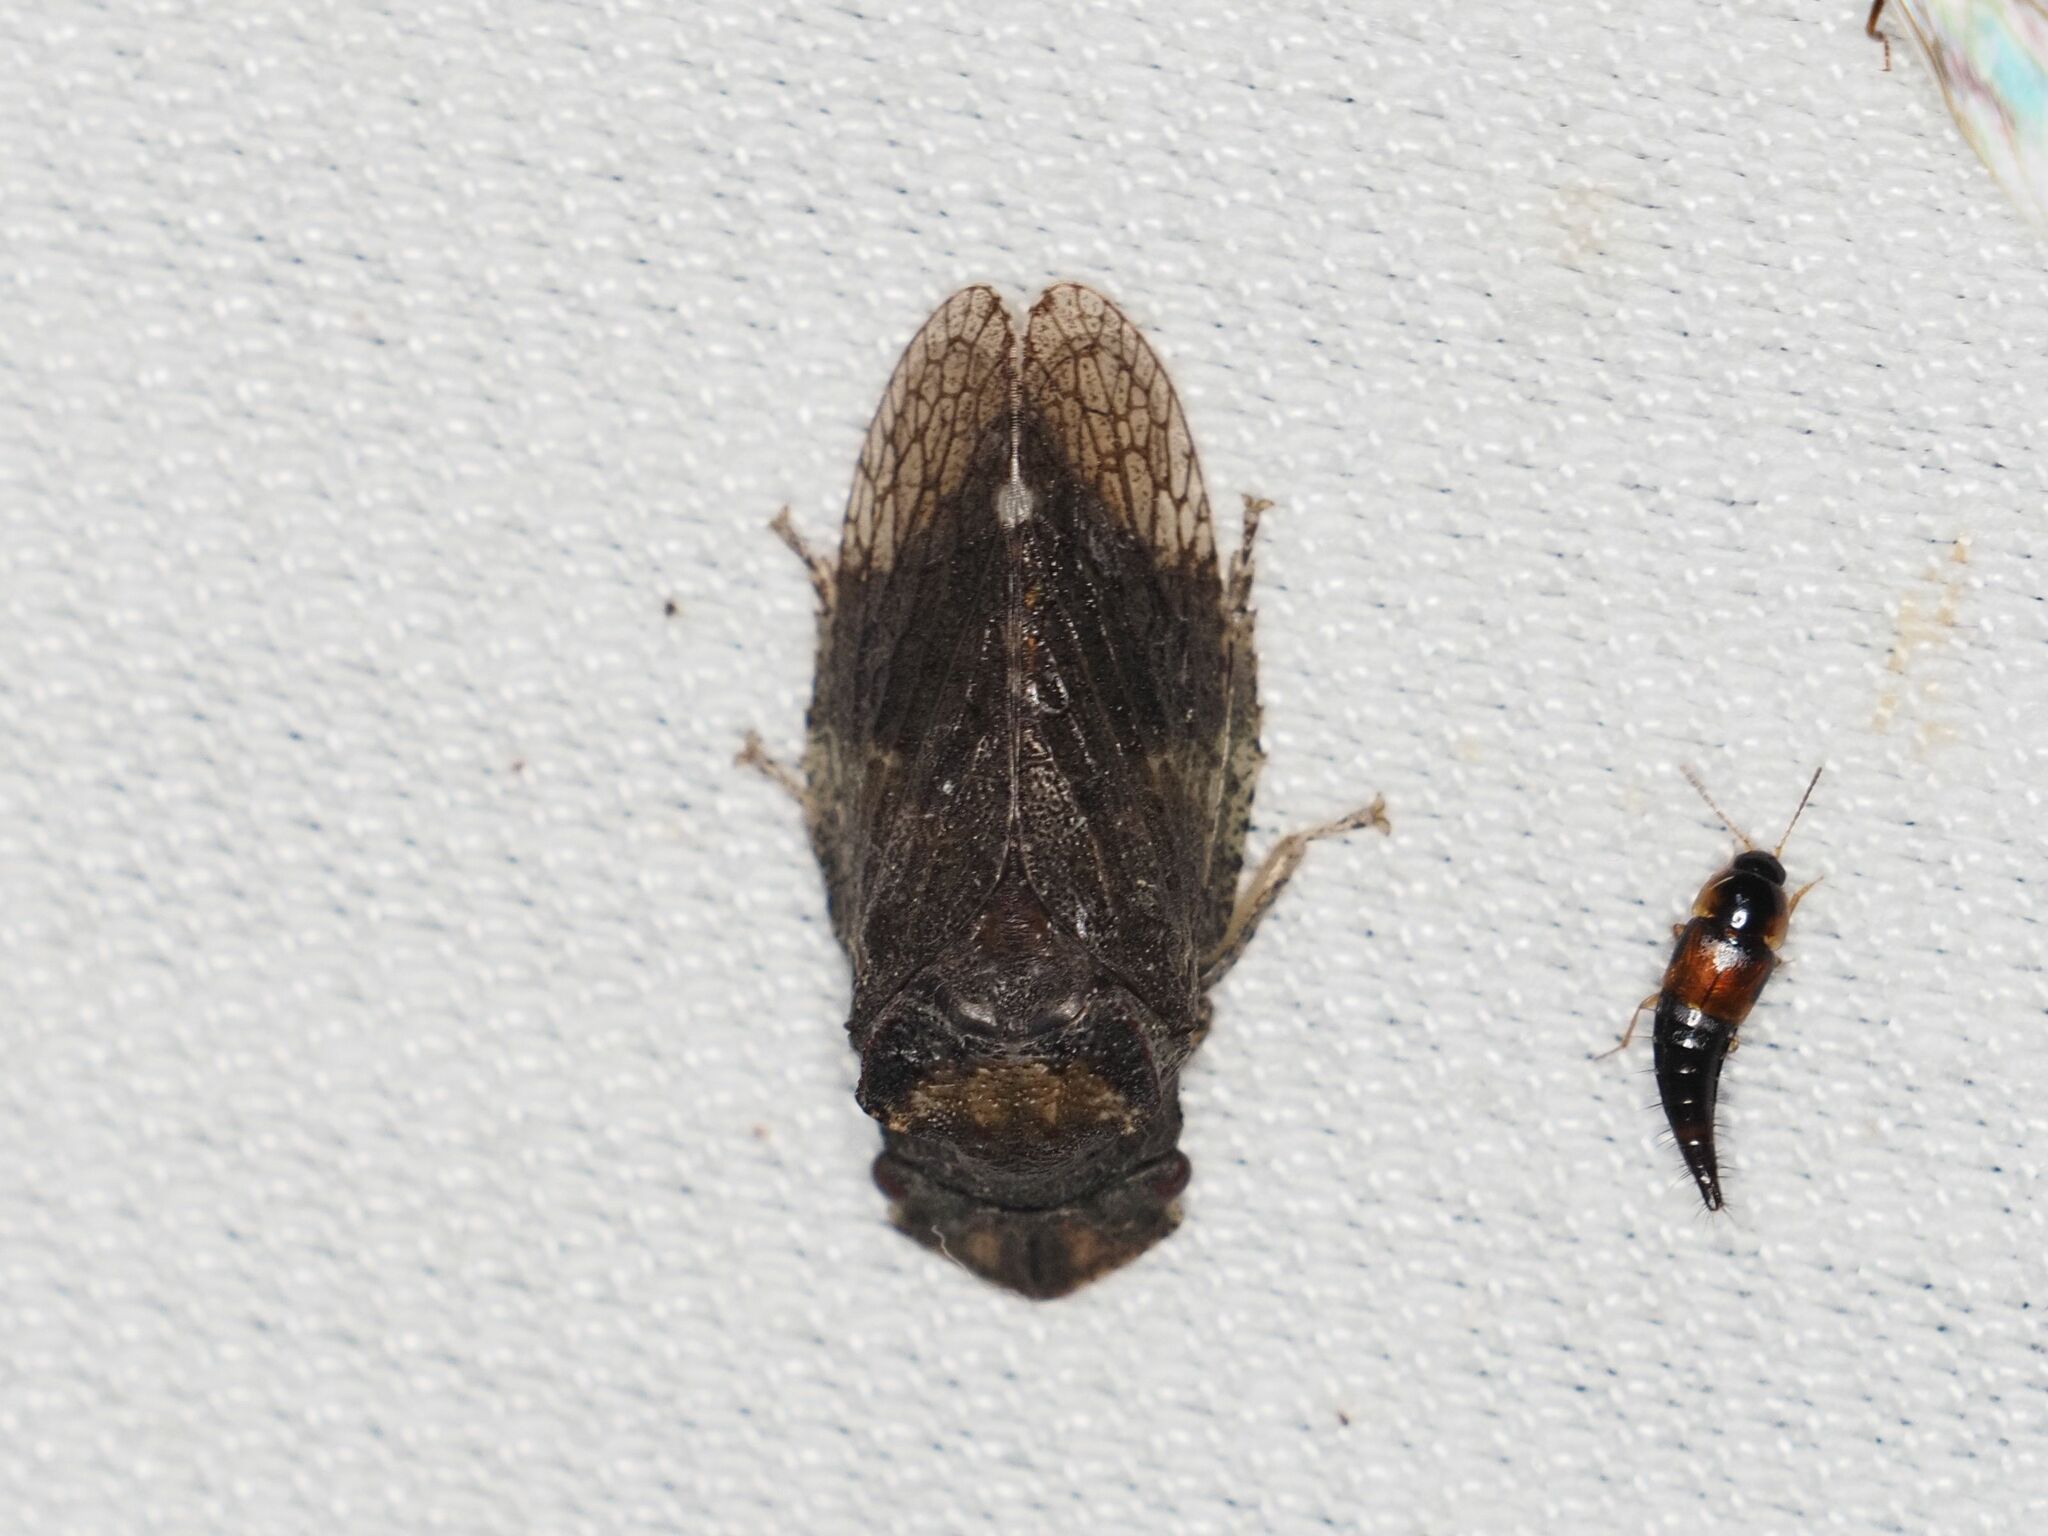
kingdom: Animalia
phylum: Arthropoda
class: Insecta
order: Hemiptera
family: Cicadellidae
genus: Ledra
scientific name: Ledra aurita
